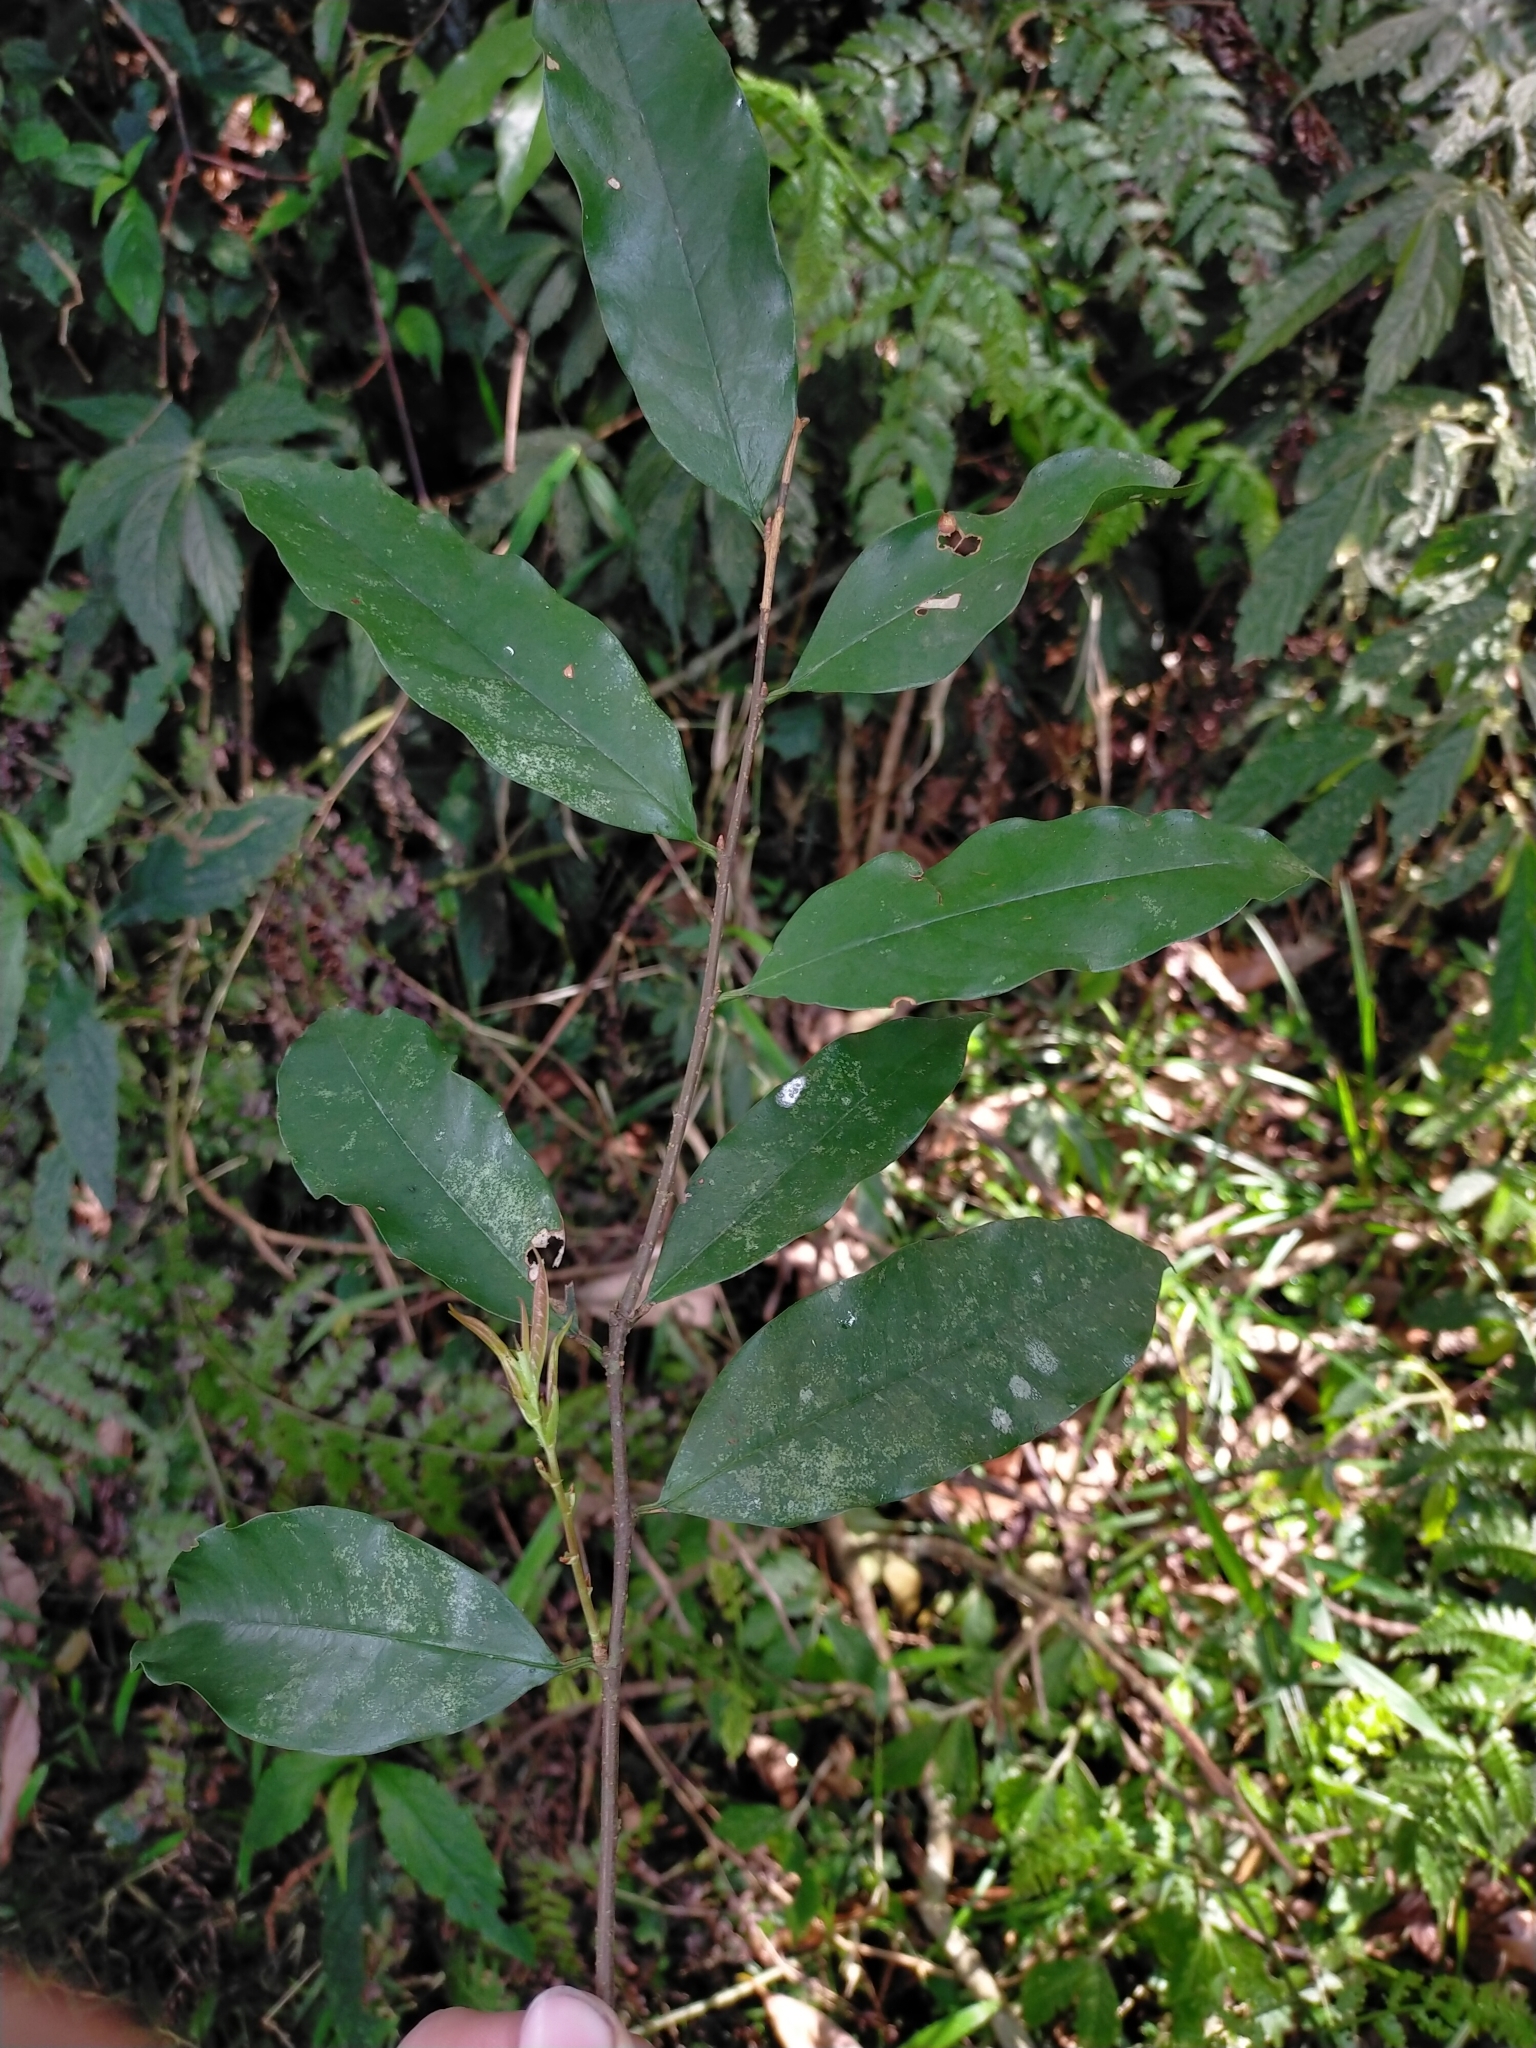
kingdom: Plantae
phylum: Tracheophyta
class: Magnoliopsida
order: Rosales
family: Rosaceae
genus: Prunus
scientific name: Prunus phaeosticta
